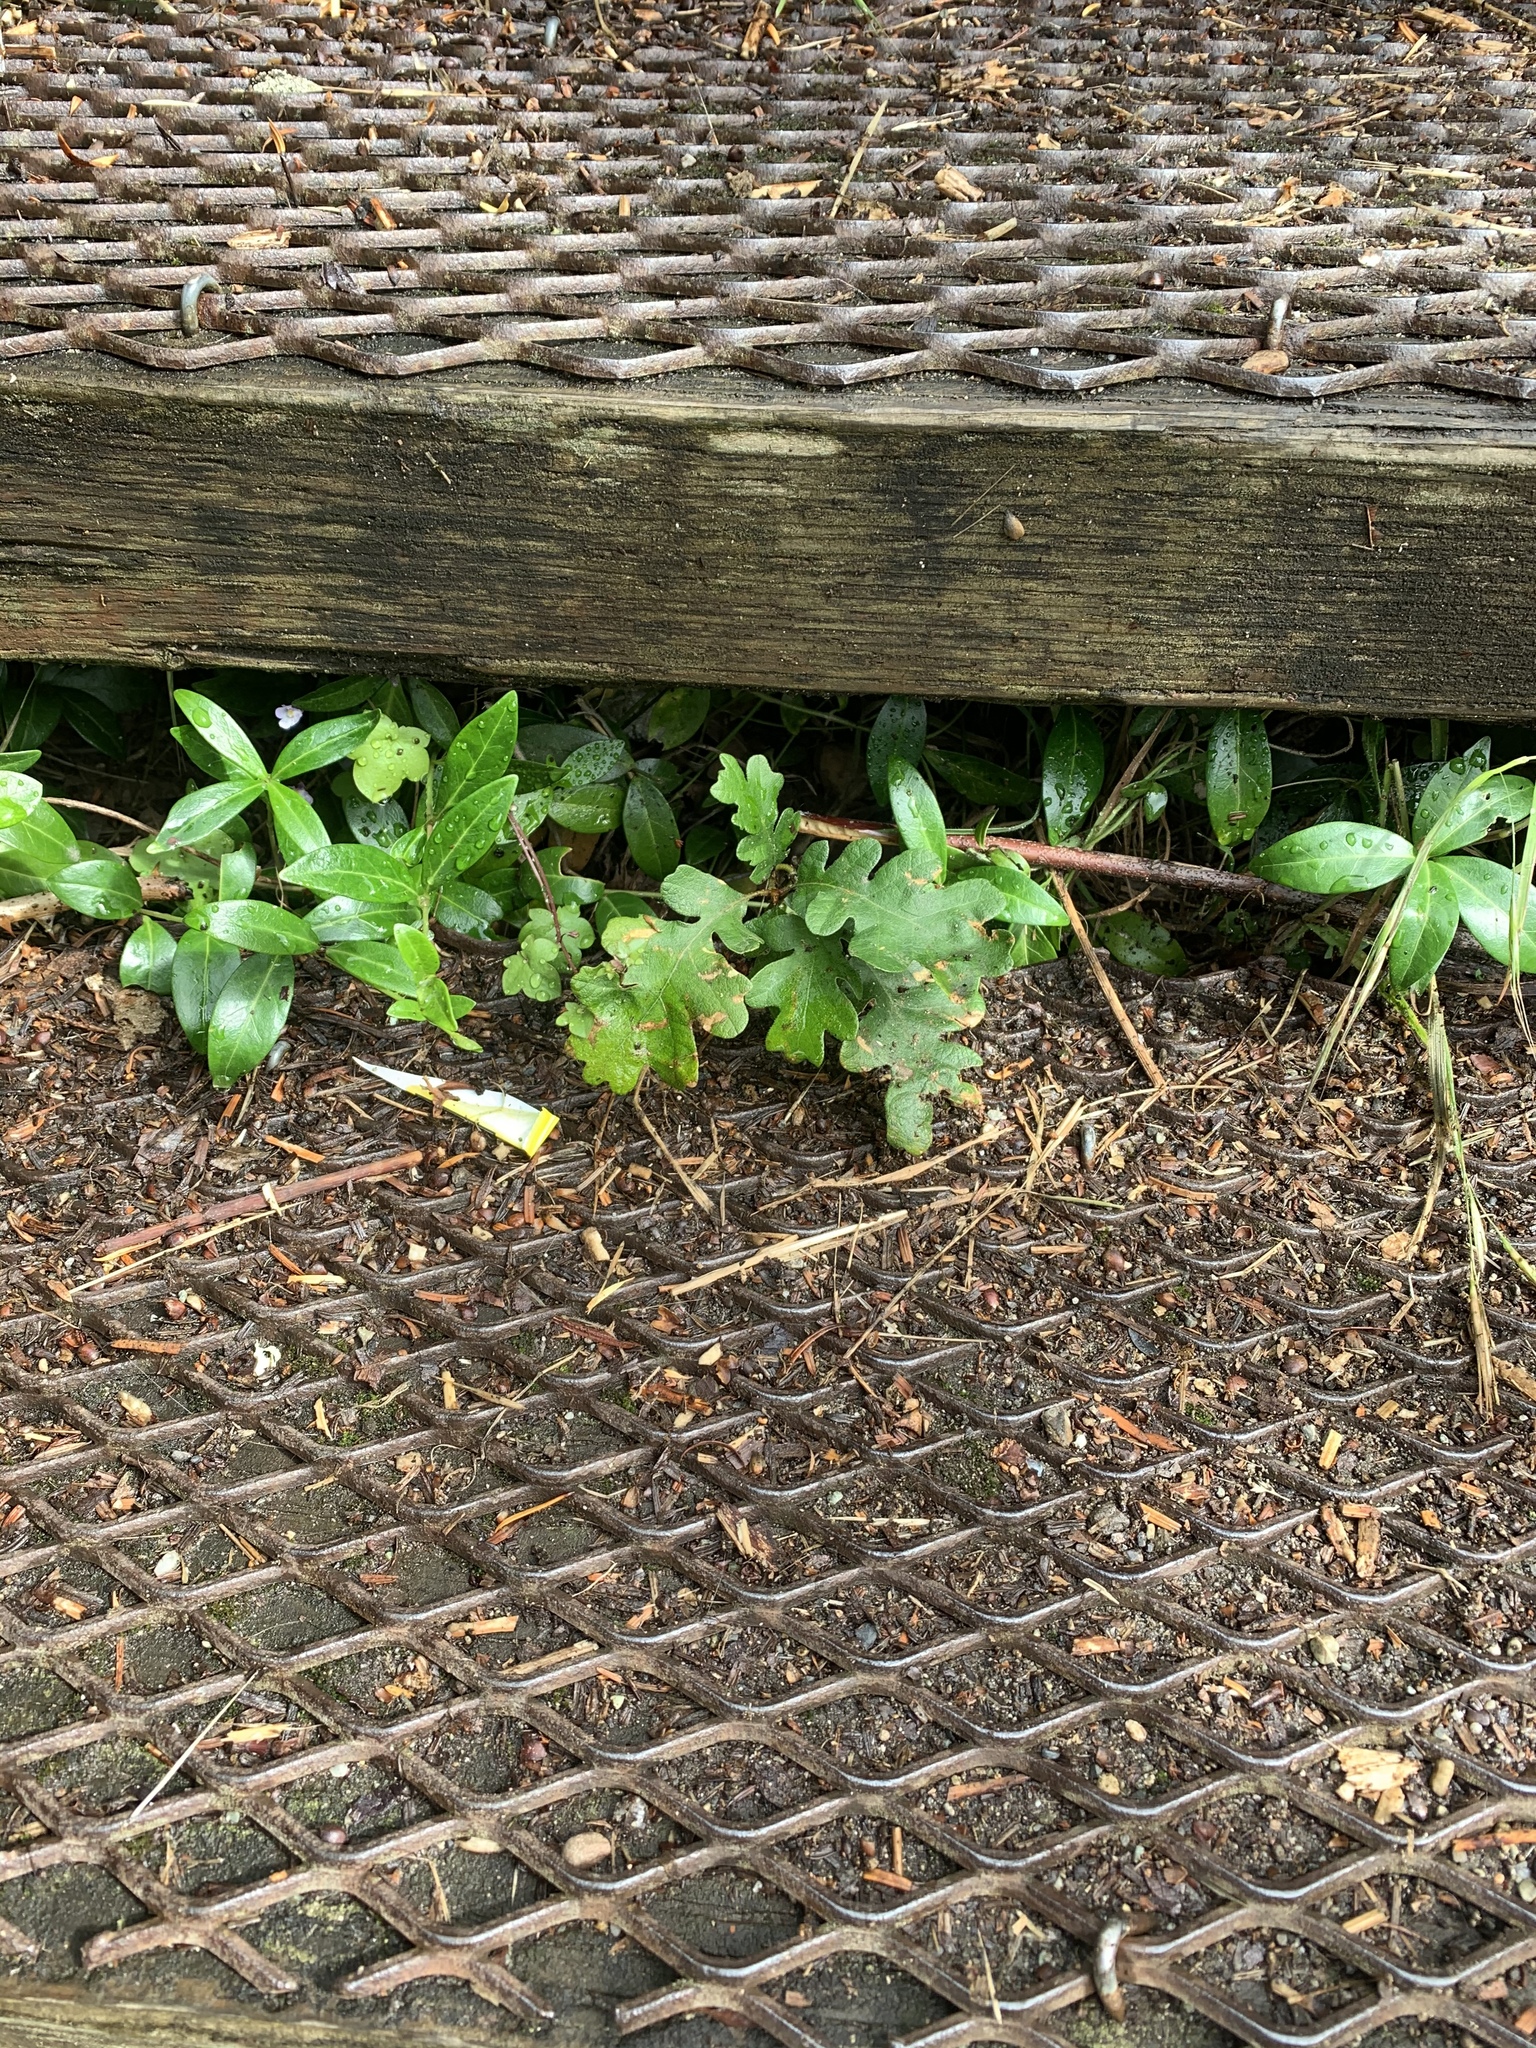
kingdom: Plantae
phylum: Tracheophyta
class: Magnoliopsida
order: Fagales
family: Fagaceae
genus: Quercus
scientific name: Quercus garryana
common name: Garry oak
